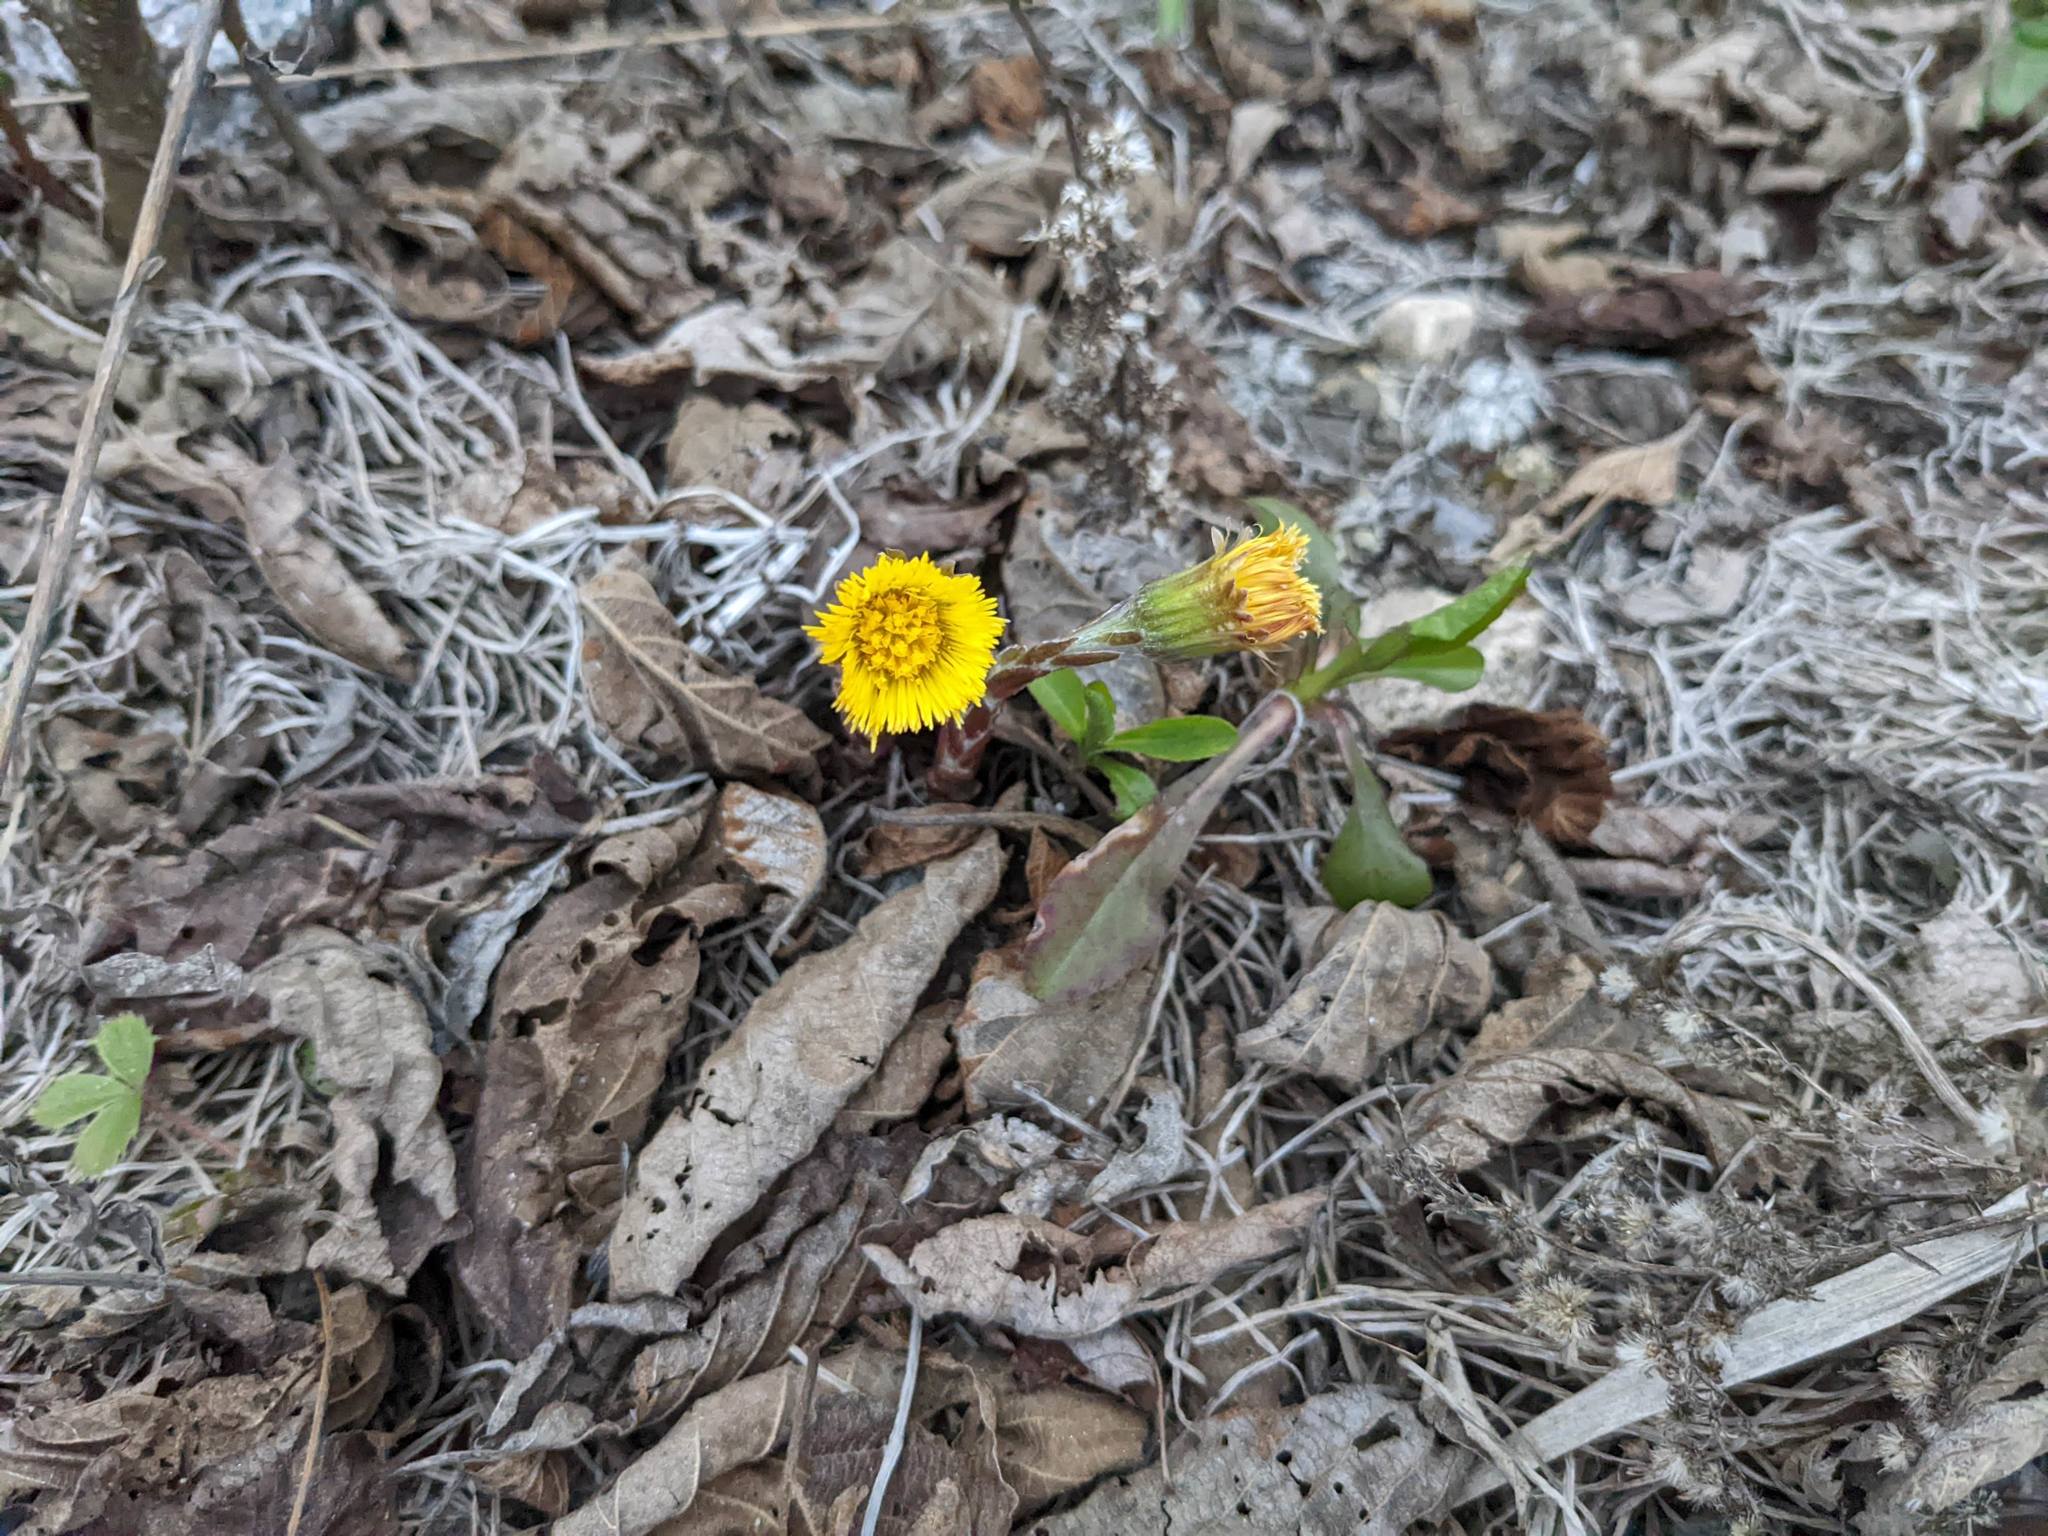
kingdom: Plantae
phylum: Tracheophyta
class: Magnoliopsida
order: Asterales
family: Asteraceae
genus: Tussilago
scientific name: Tussilago farfara
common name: Coltsfoot
